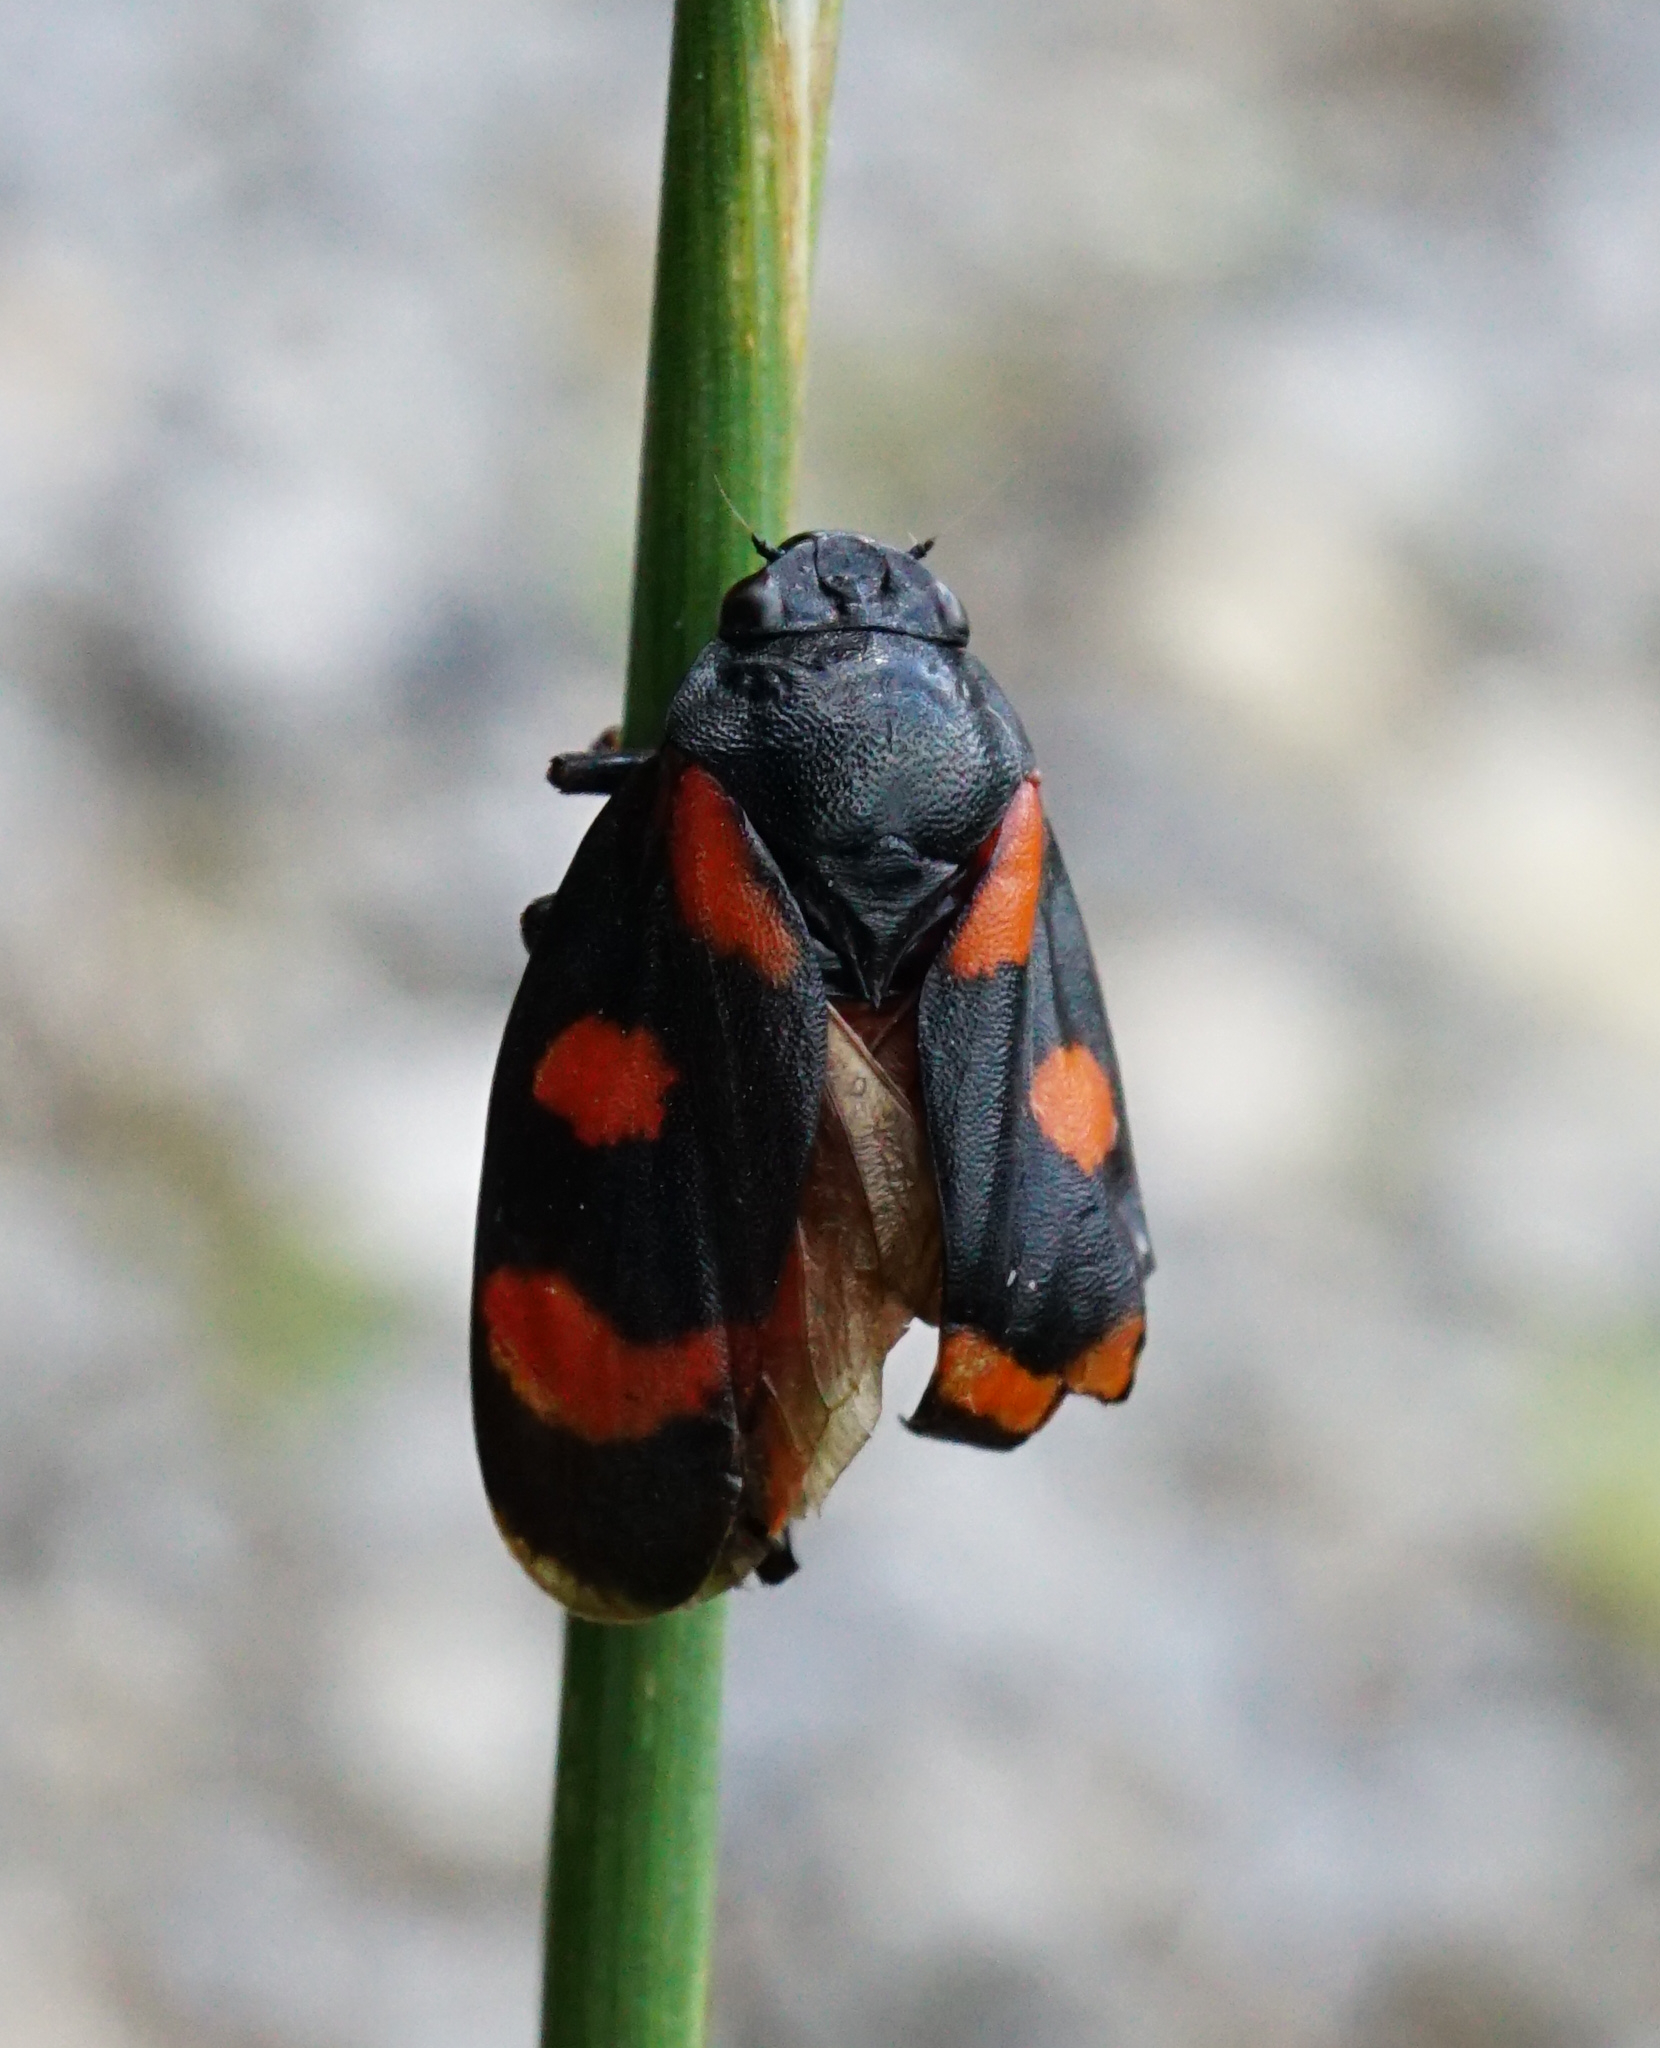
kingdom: Animalia
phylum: Arthropoda
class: Insecta
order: Hemiptera
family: Cercopidae
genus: Cercopis
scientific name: Cercopis sanguinolenta
